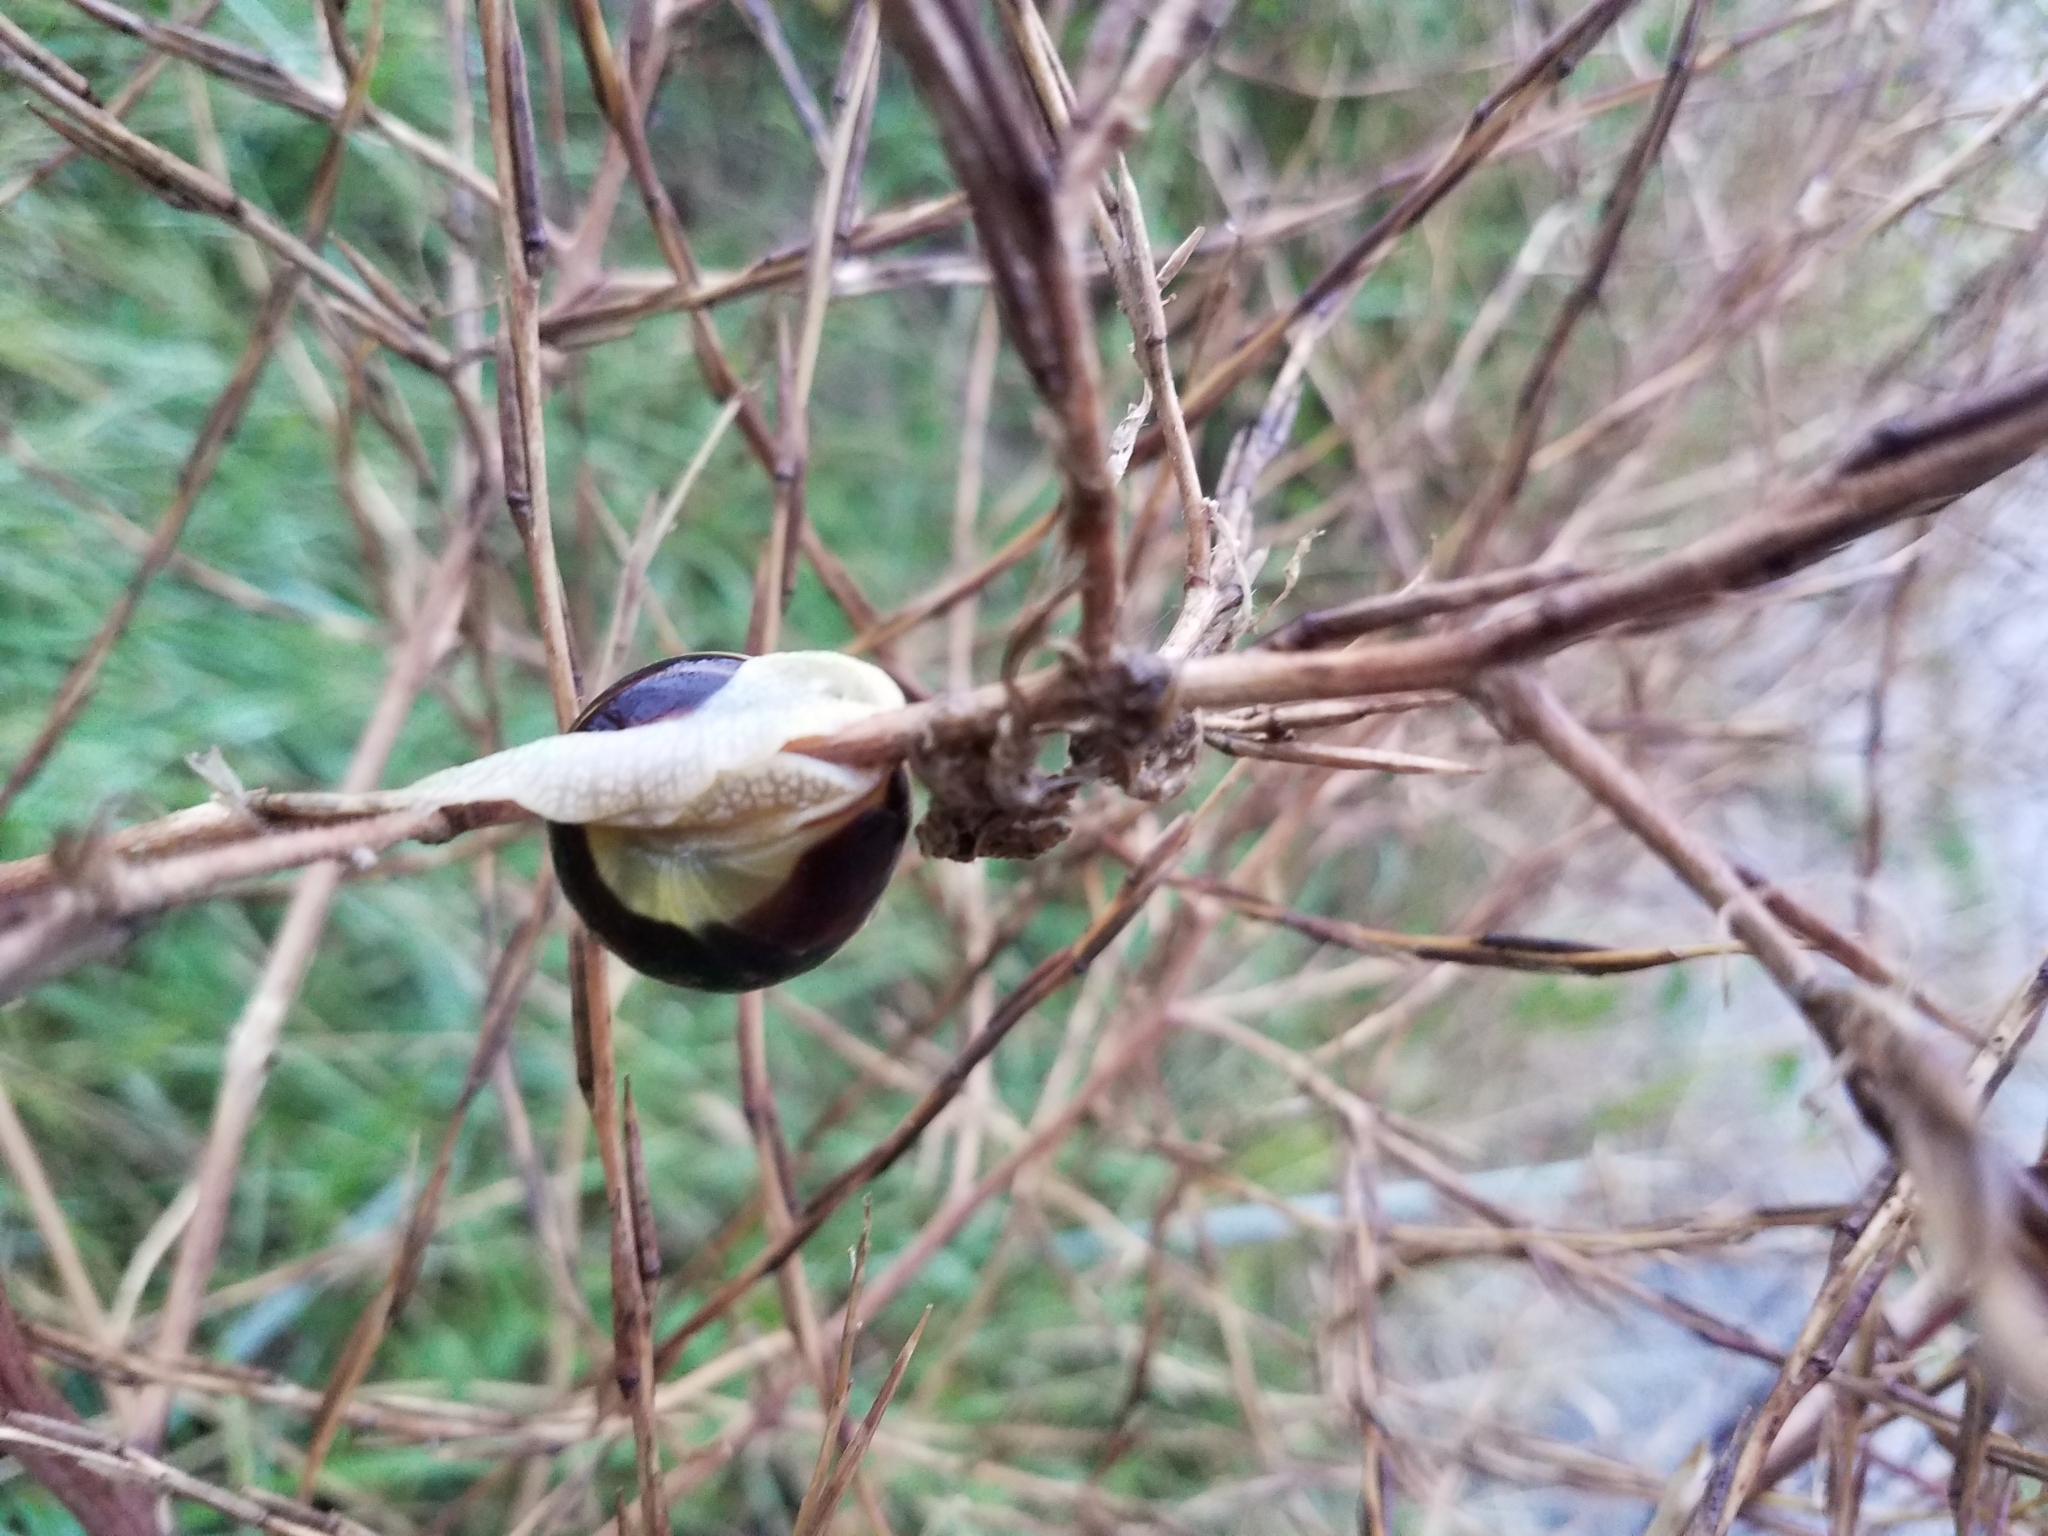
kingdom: Animalia
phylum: Mollusca
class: Gastropoda
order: Stylommatophora
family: Helicidae
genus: Cepaea
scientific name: Cepaea nemoralis
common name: Grovesnail
